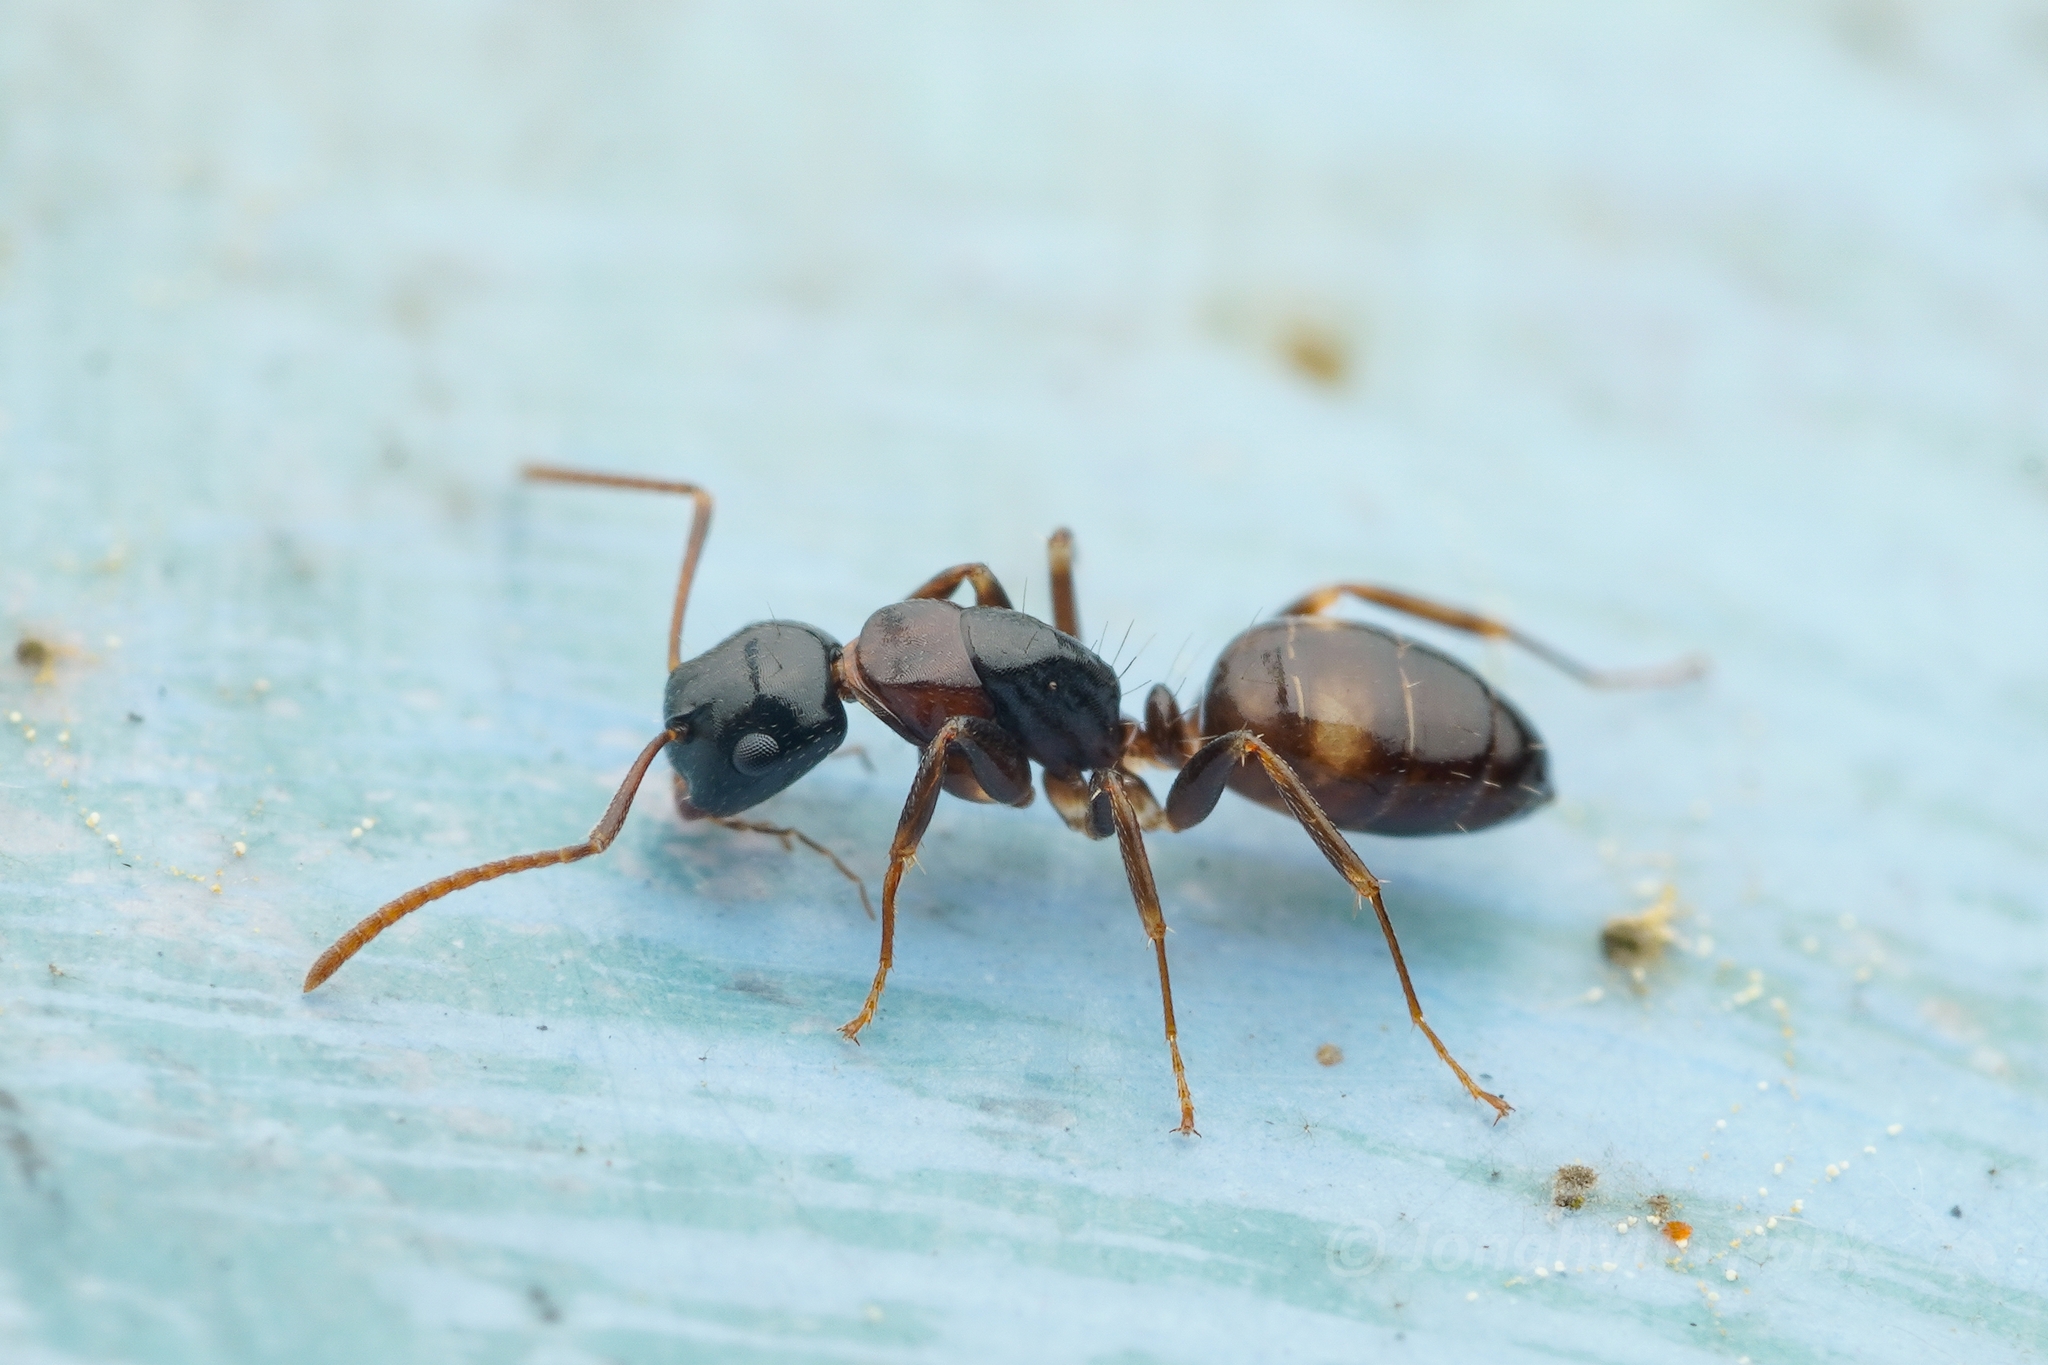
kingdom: Animalia
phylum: Arthropoda
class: Insecta
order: Hymenoptera
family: Formicidae
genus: Camponotus
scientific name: Camponotus yamaokai
